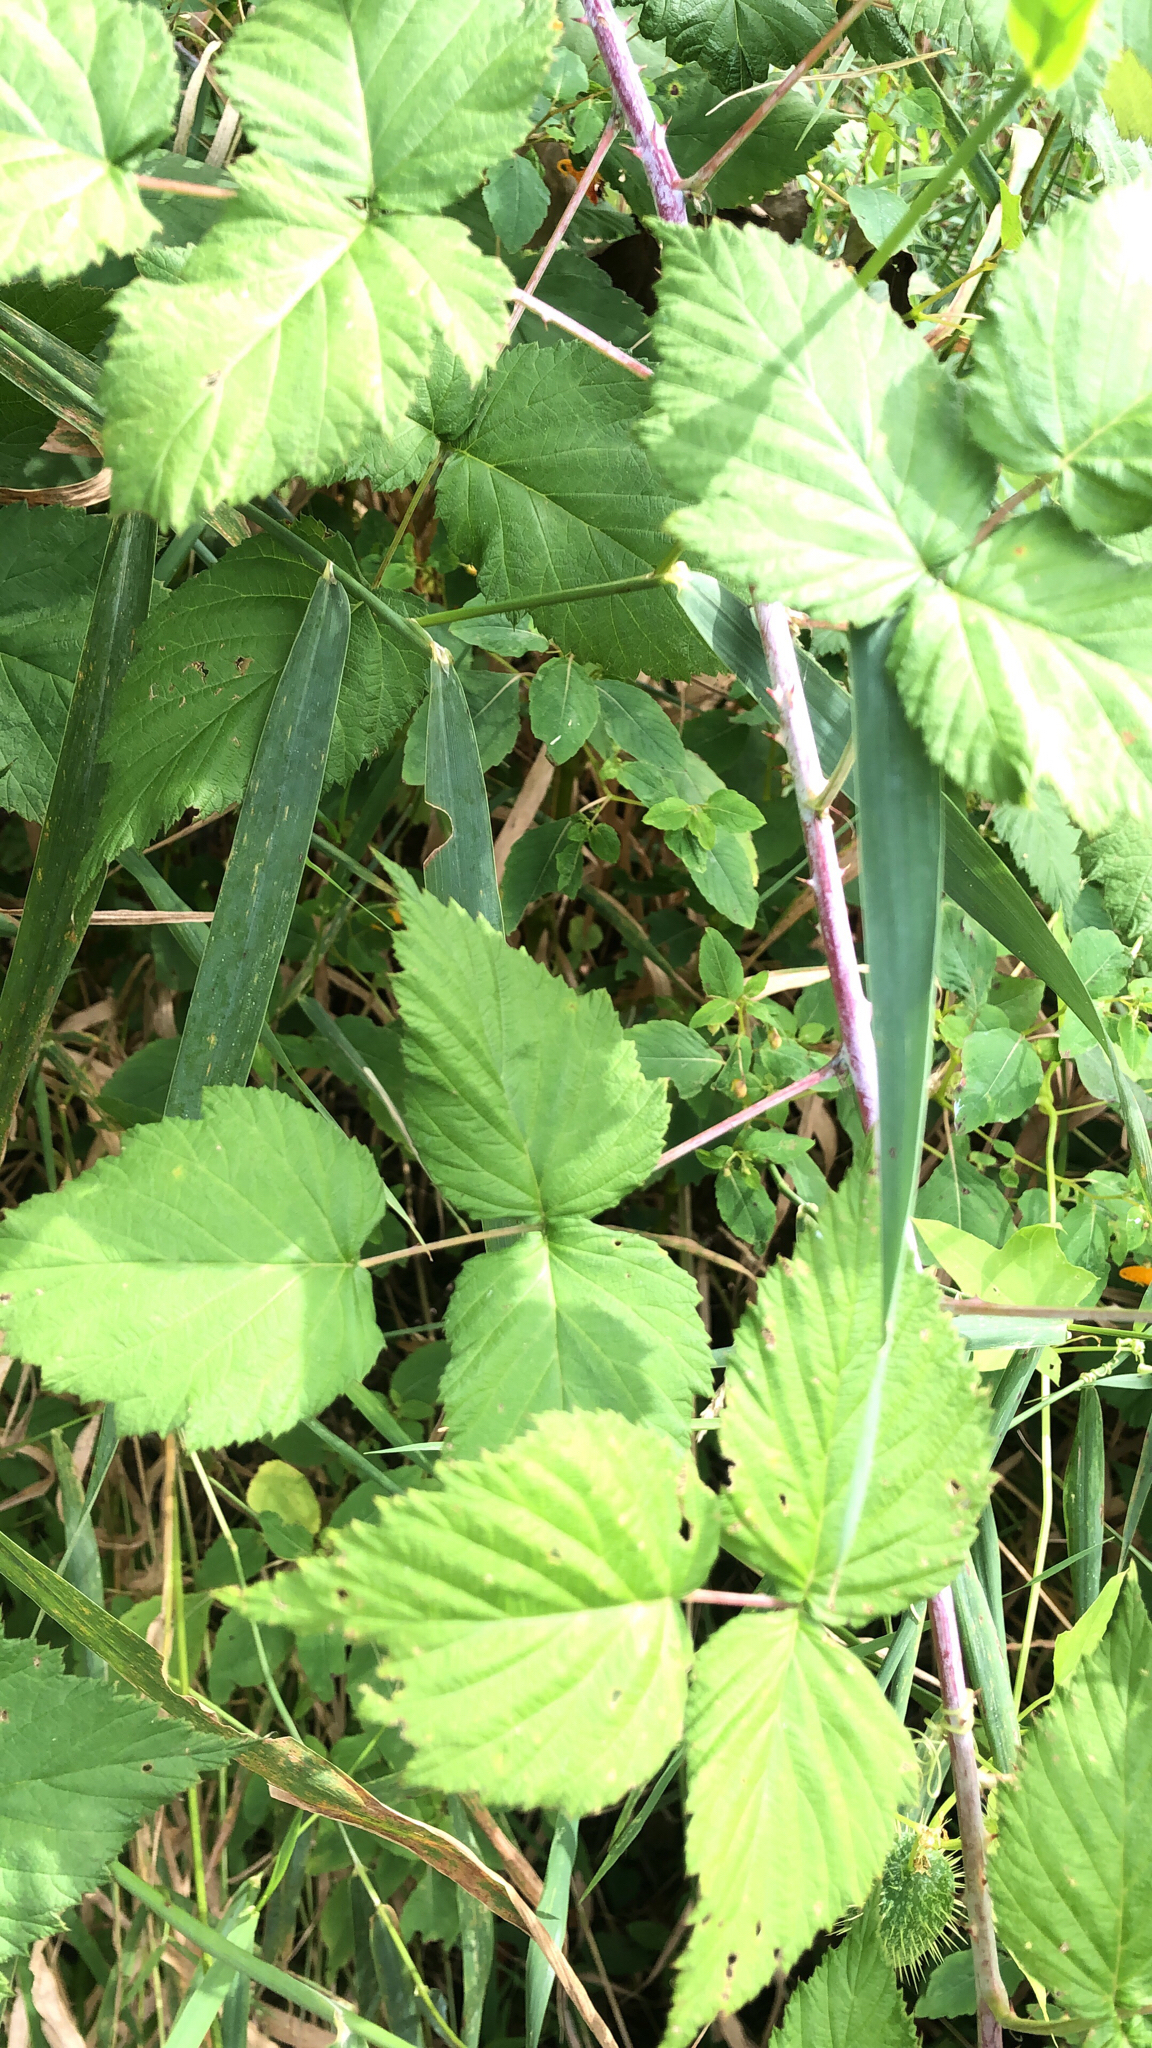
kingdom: Plantae
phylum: Tracheophyta
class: Magnoliopsida
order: Rosales
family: Rosaceae
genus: Rubus
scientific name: Rubus occidentalis
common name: Black raspberry
